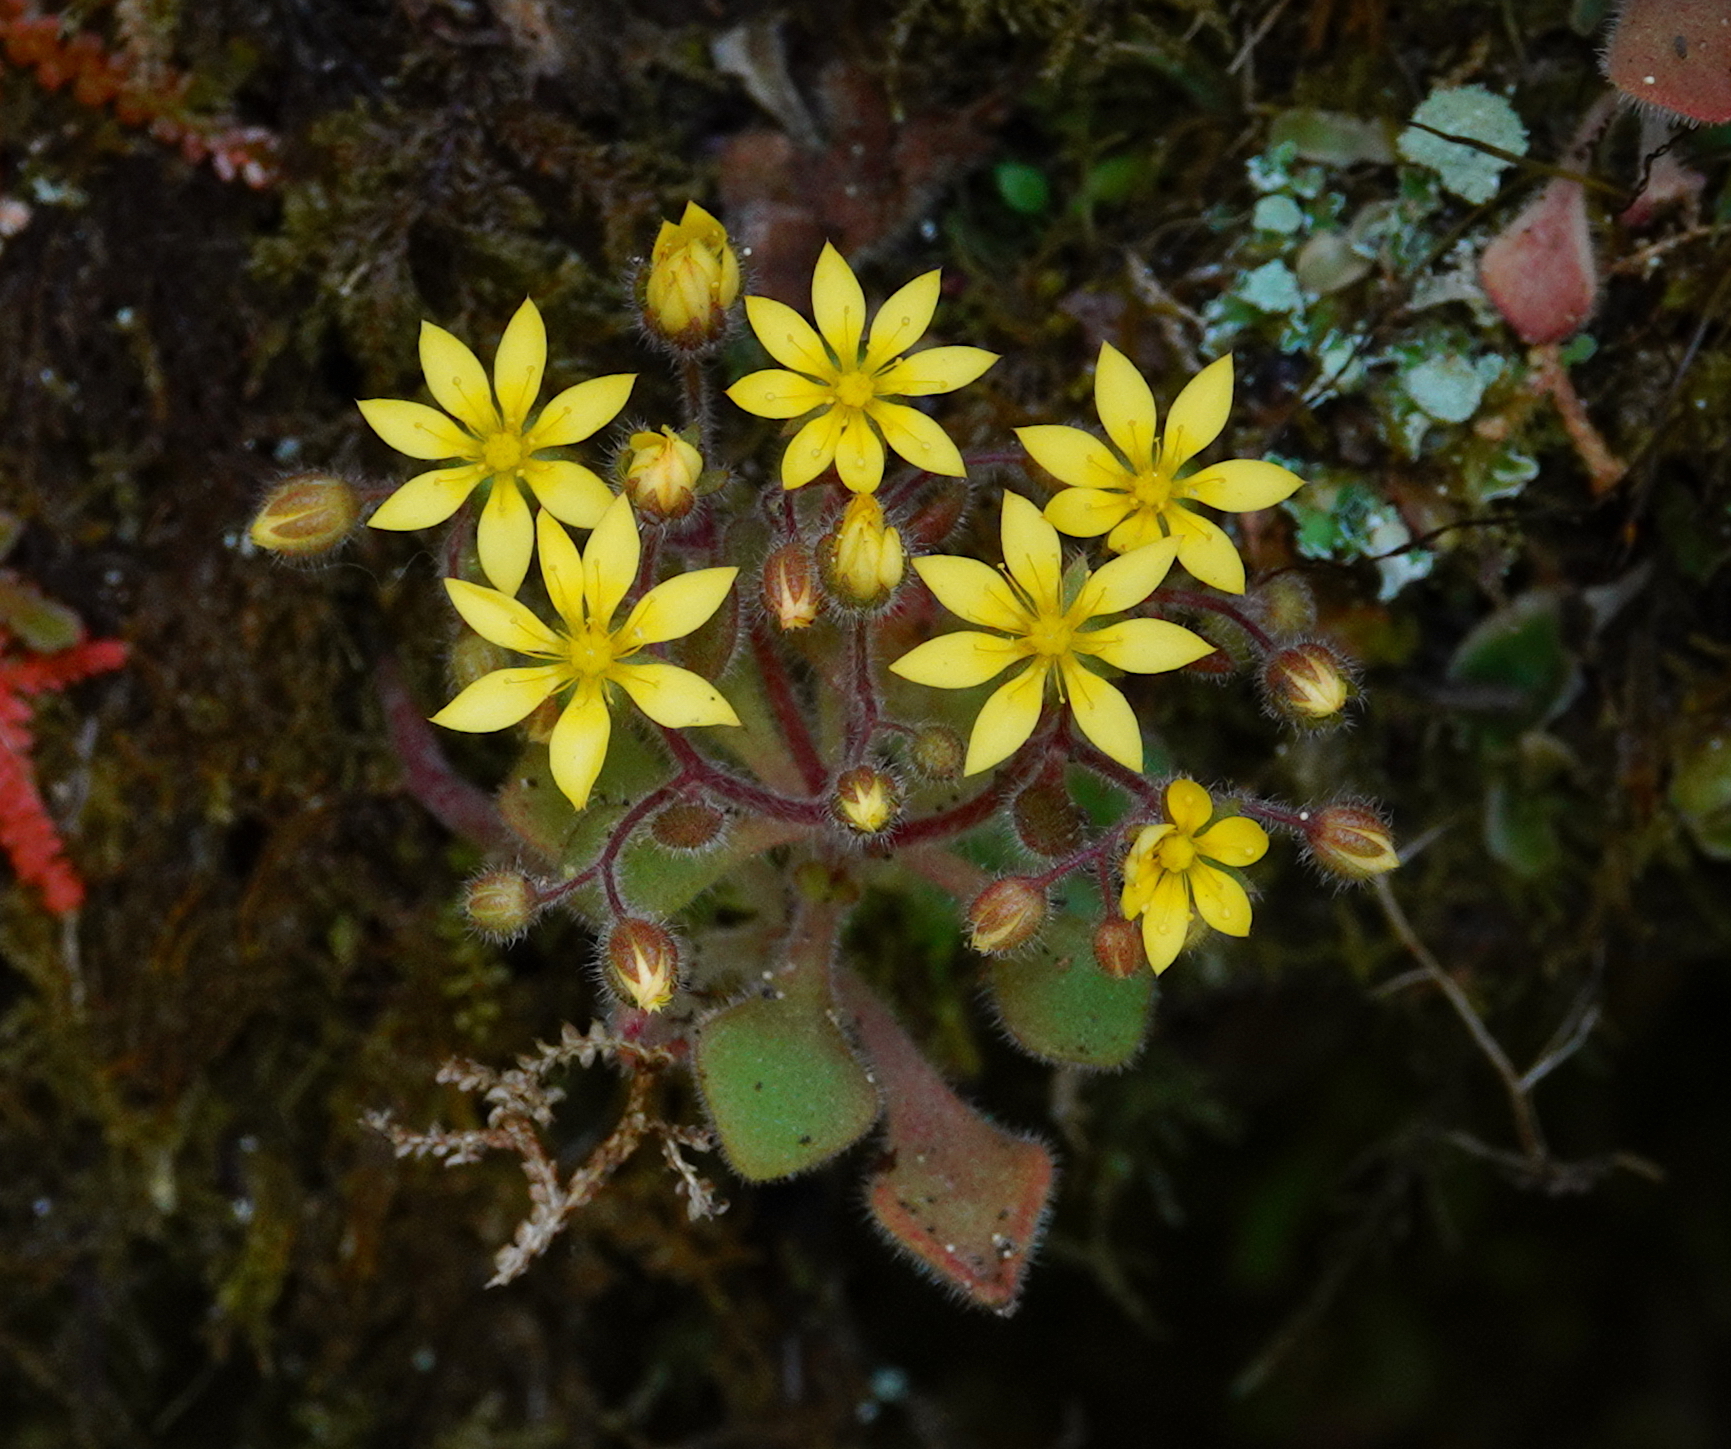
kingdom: Plantae
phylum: Tracheophyta
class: Magnoliopsida
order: Saxifragales
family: Crassulaceae
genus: Aichryson
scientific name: Aichryson villosum
